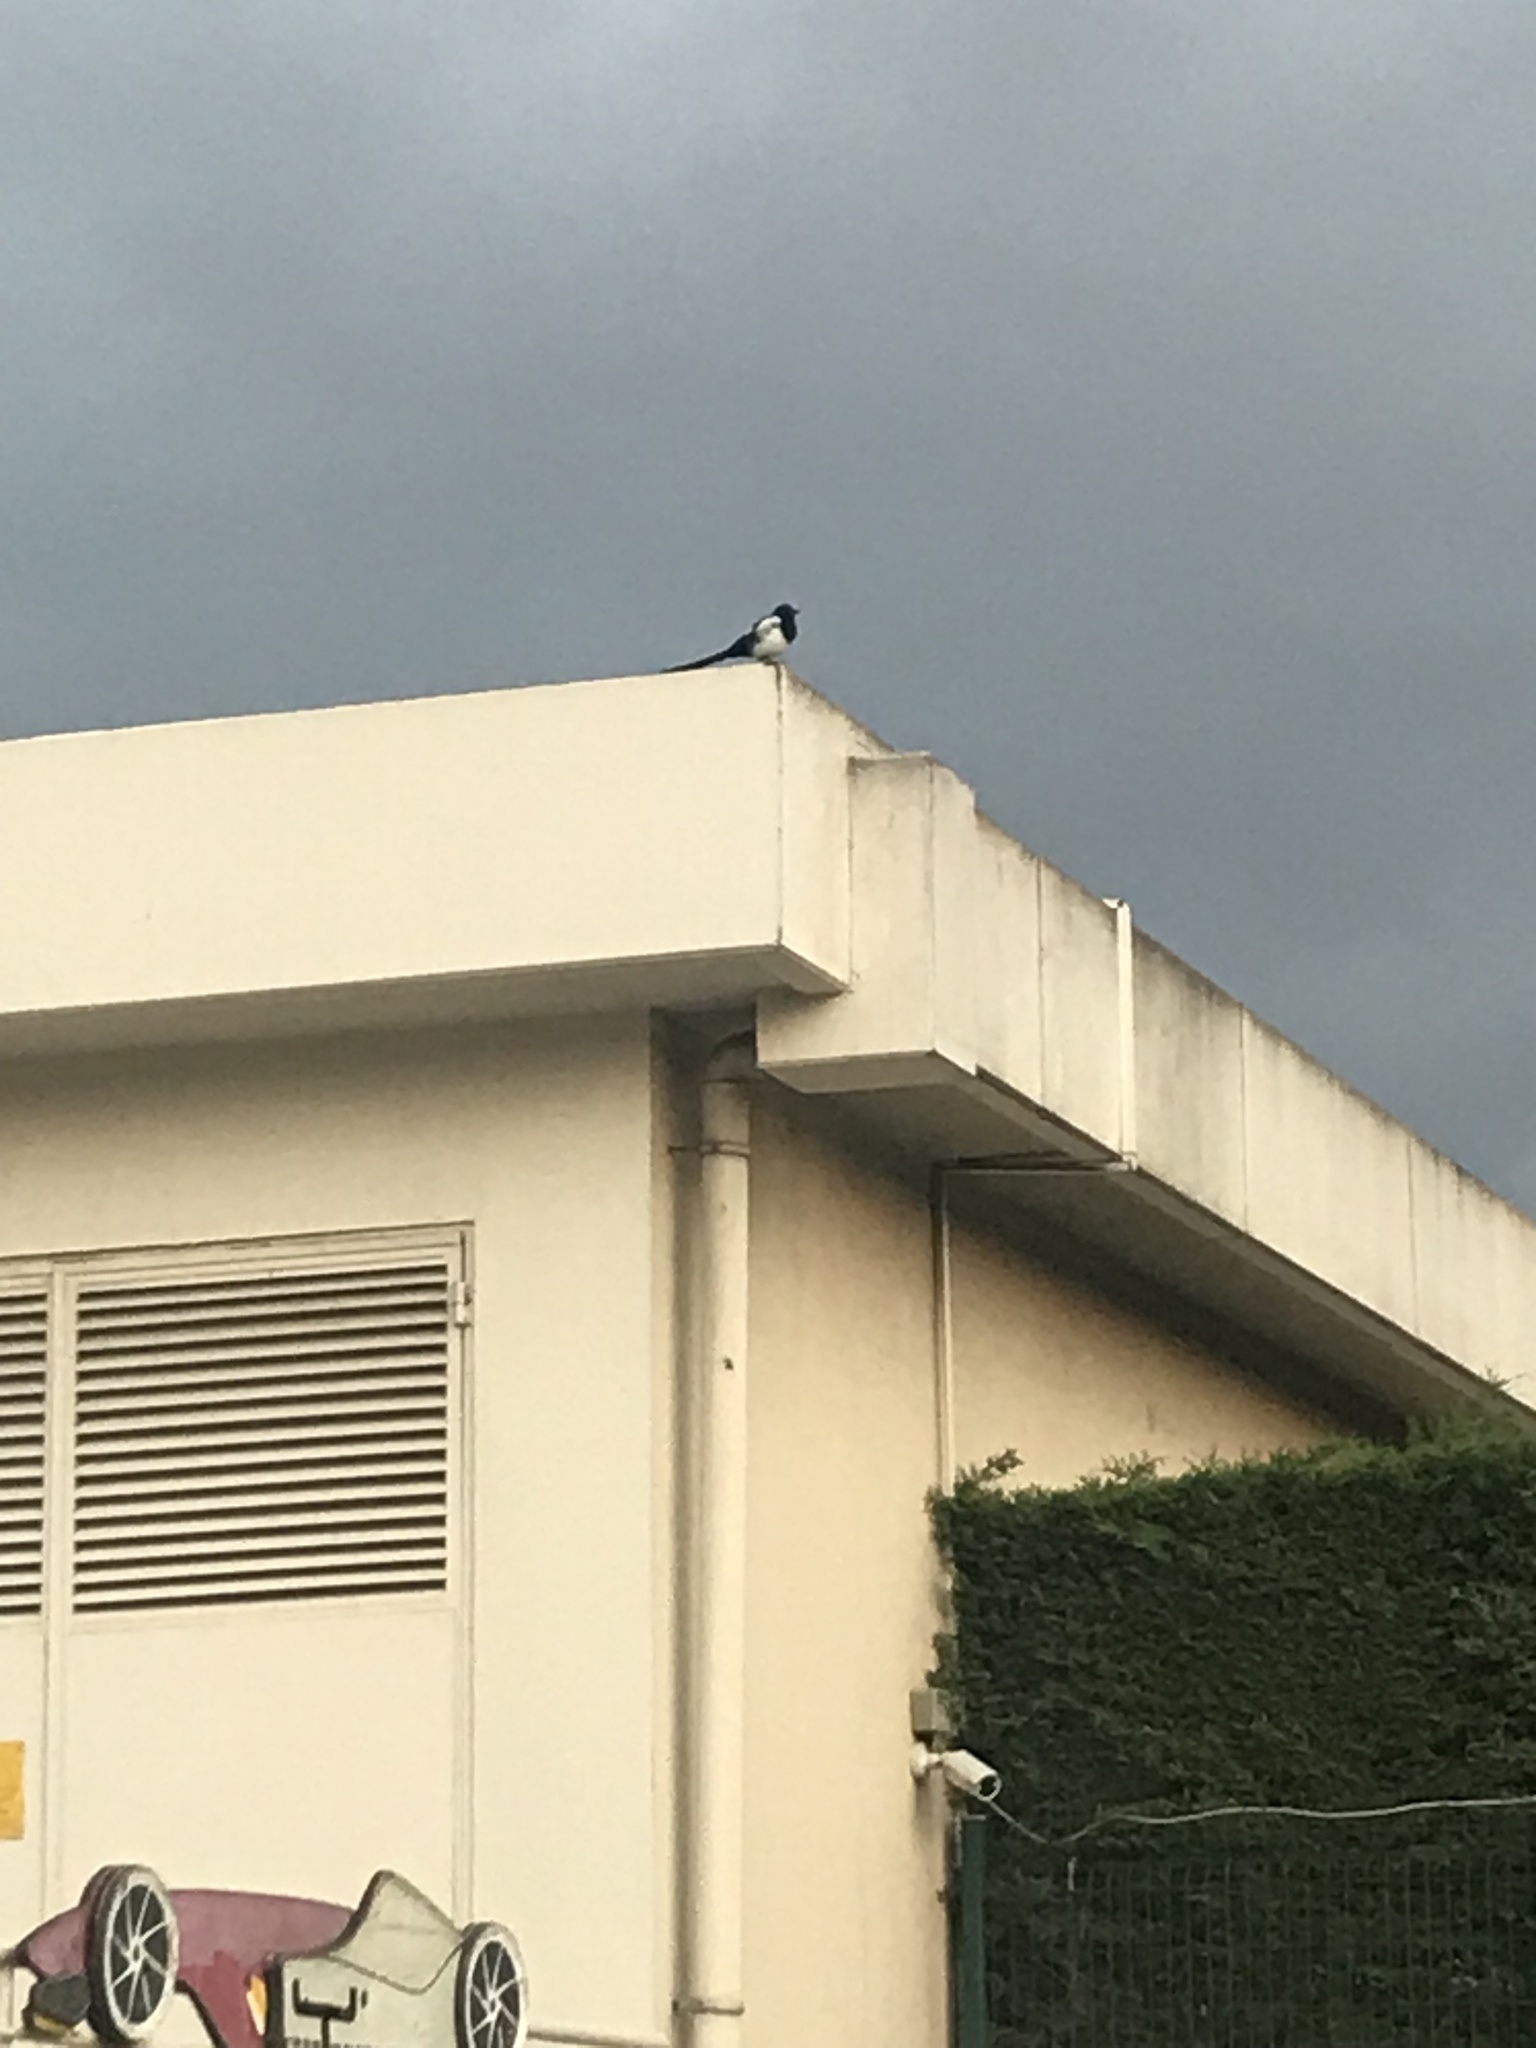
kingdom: Animalia
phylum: Chordata
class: Aves
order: Passeriformes
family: Corvidae
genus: Pica
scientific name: Pica pica
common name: Eurasian magpie
